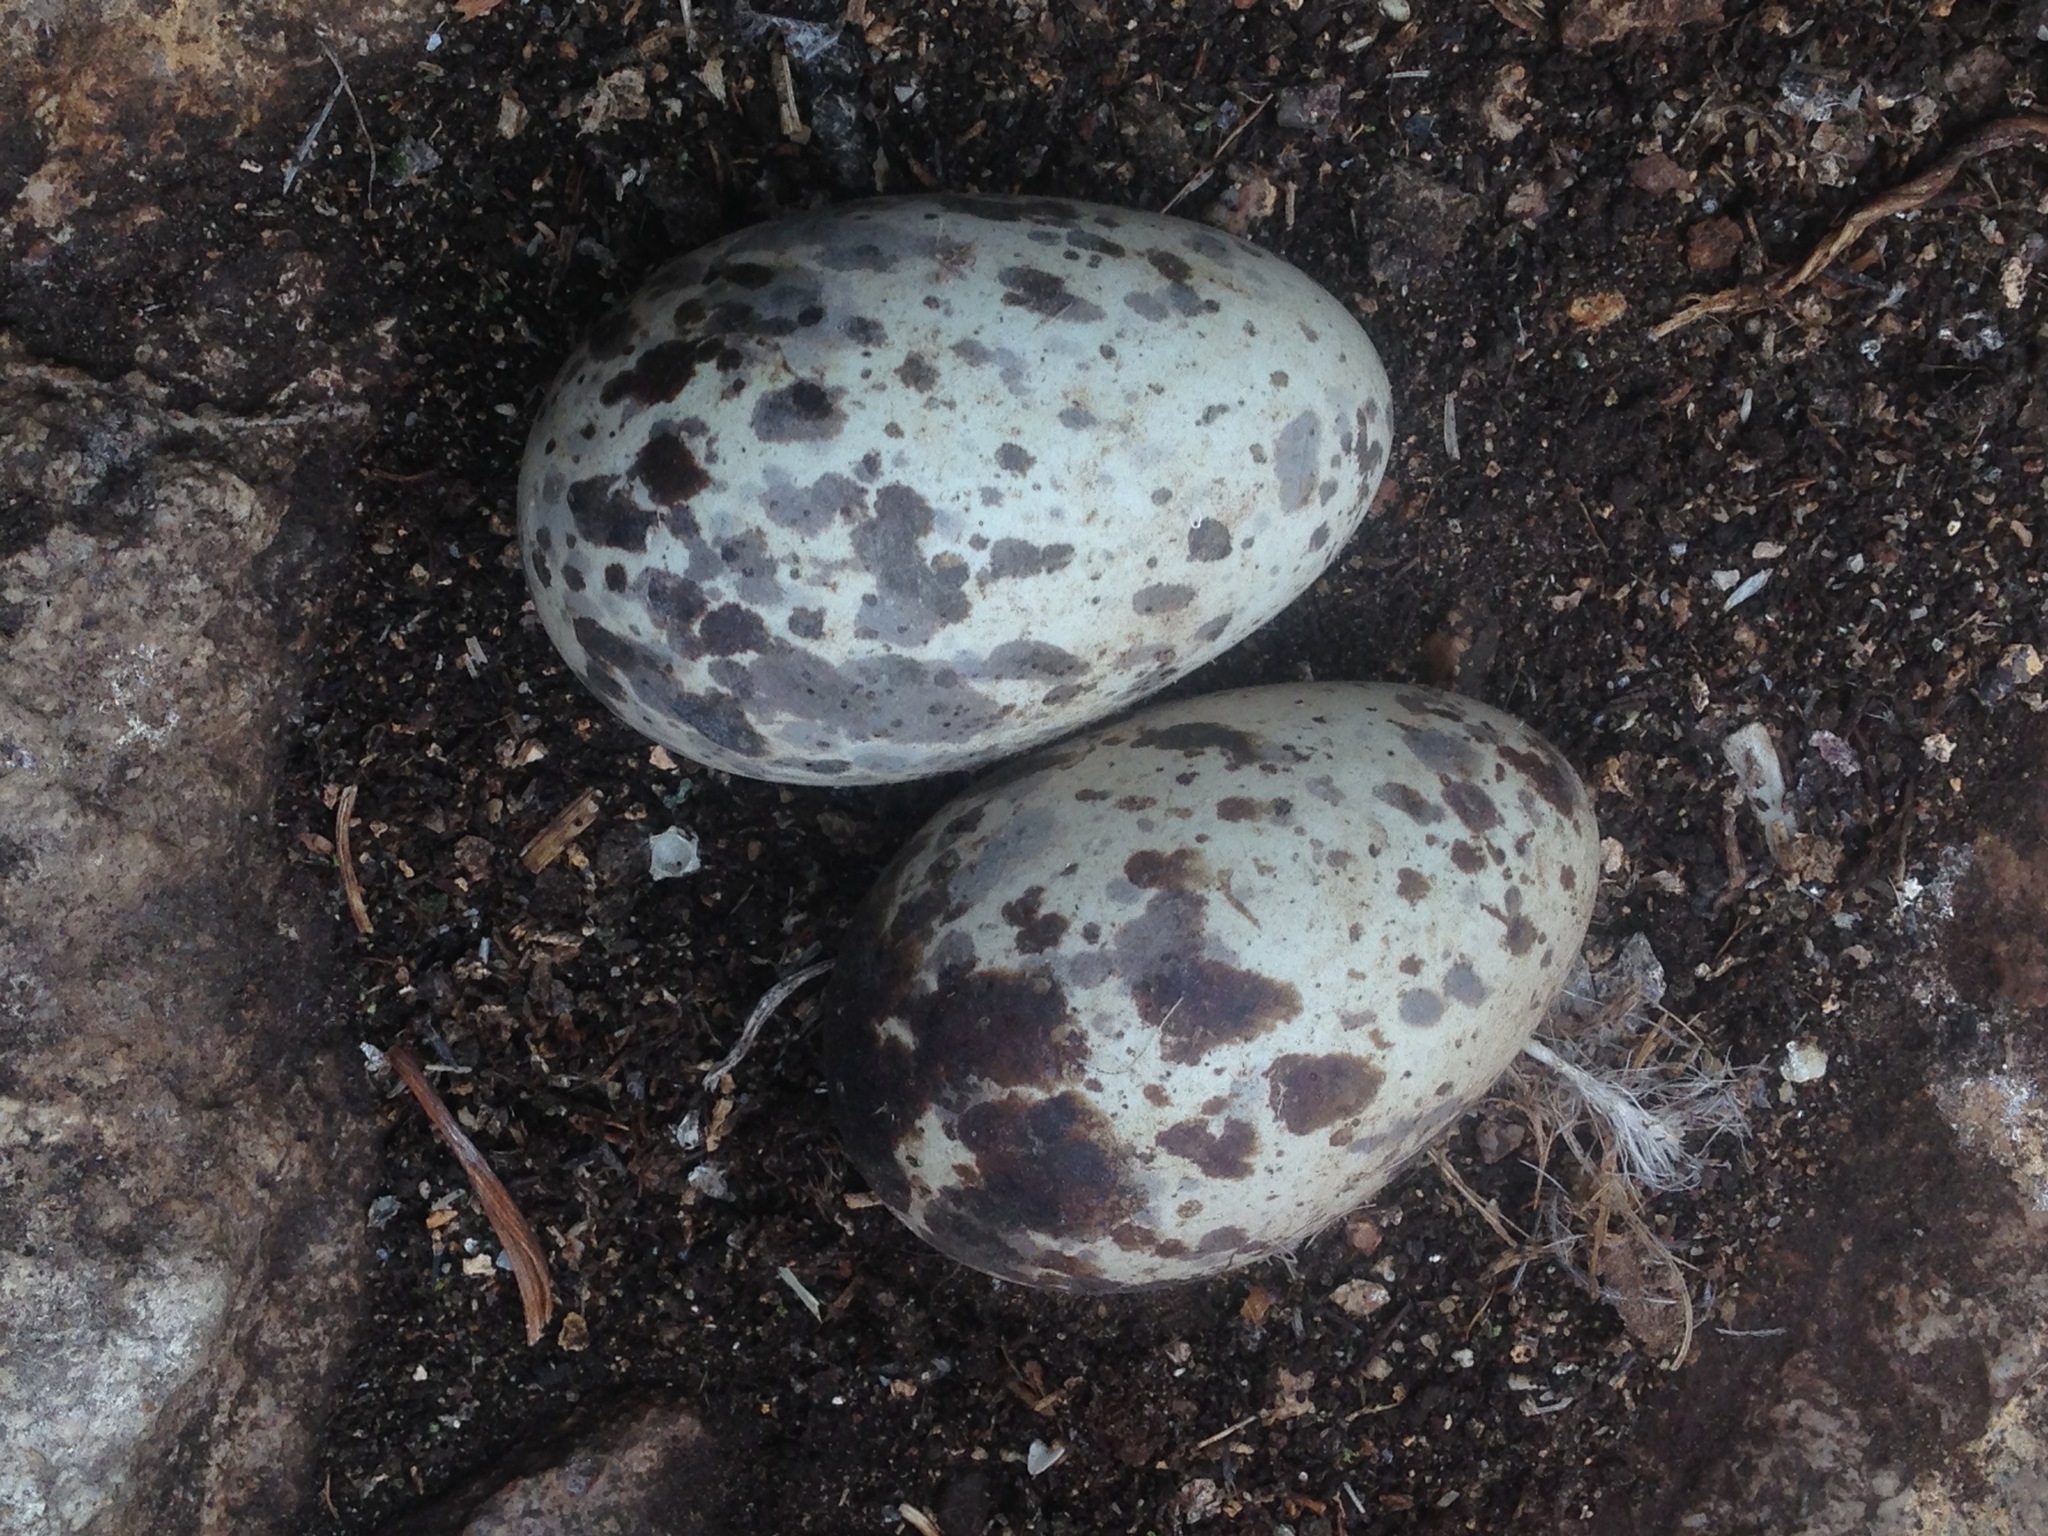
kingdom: Animalia
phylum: Chordata
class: Aves
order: Charadriiformes
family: Alcidae
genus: Cepphus
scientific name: Cepphus columba
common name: Pigeon guillemot
